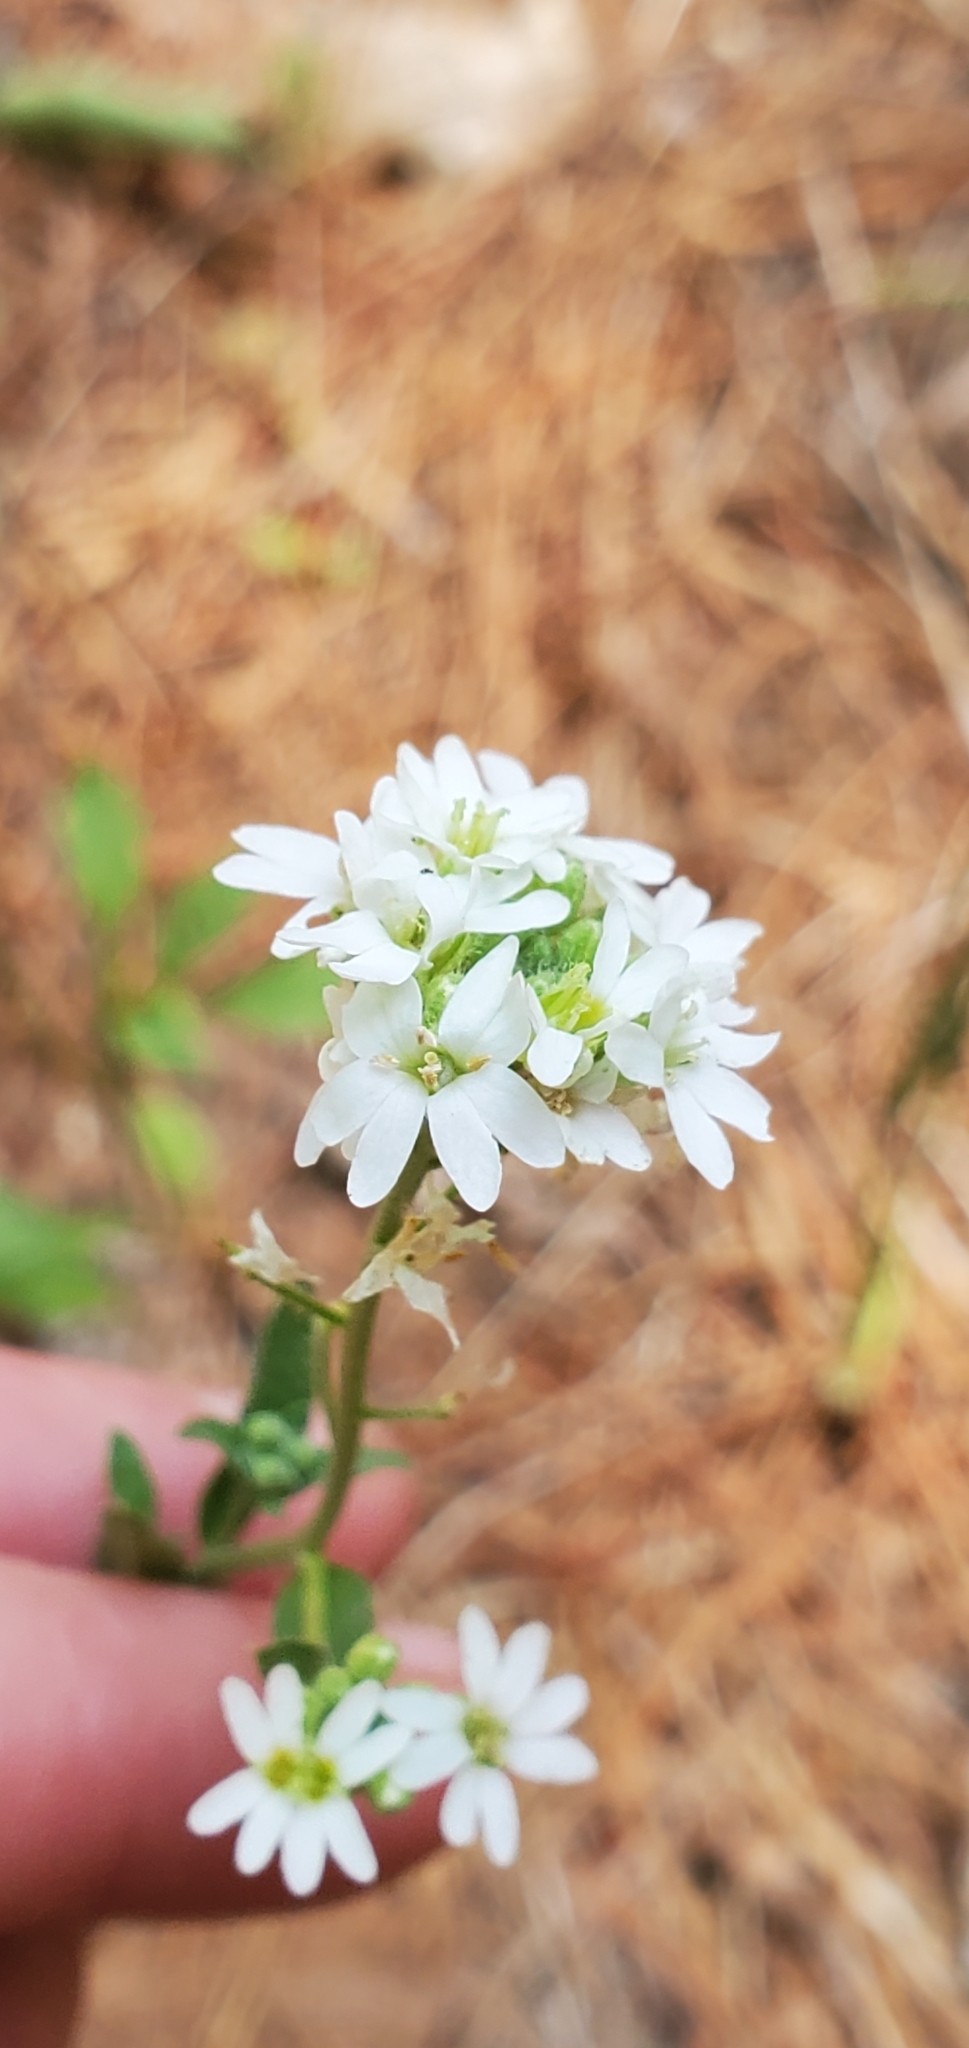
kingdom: Plantae
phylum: Tracheophyta
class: Magnoliopsida
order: Brassicales
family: Brassicaceae
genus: Berteroa
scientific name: Berteroa incana
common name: Hoary alison
